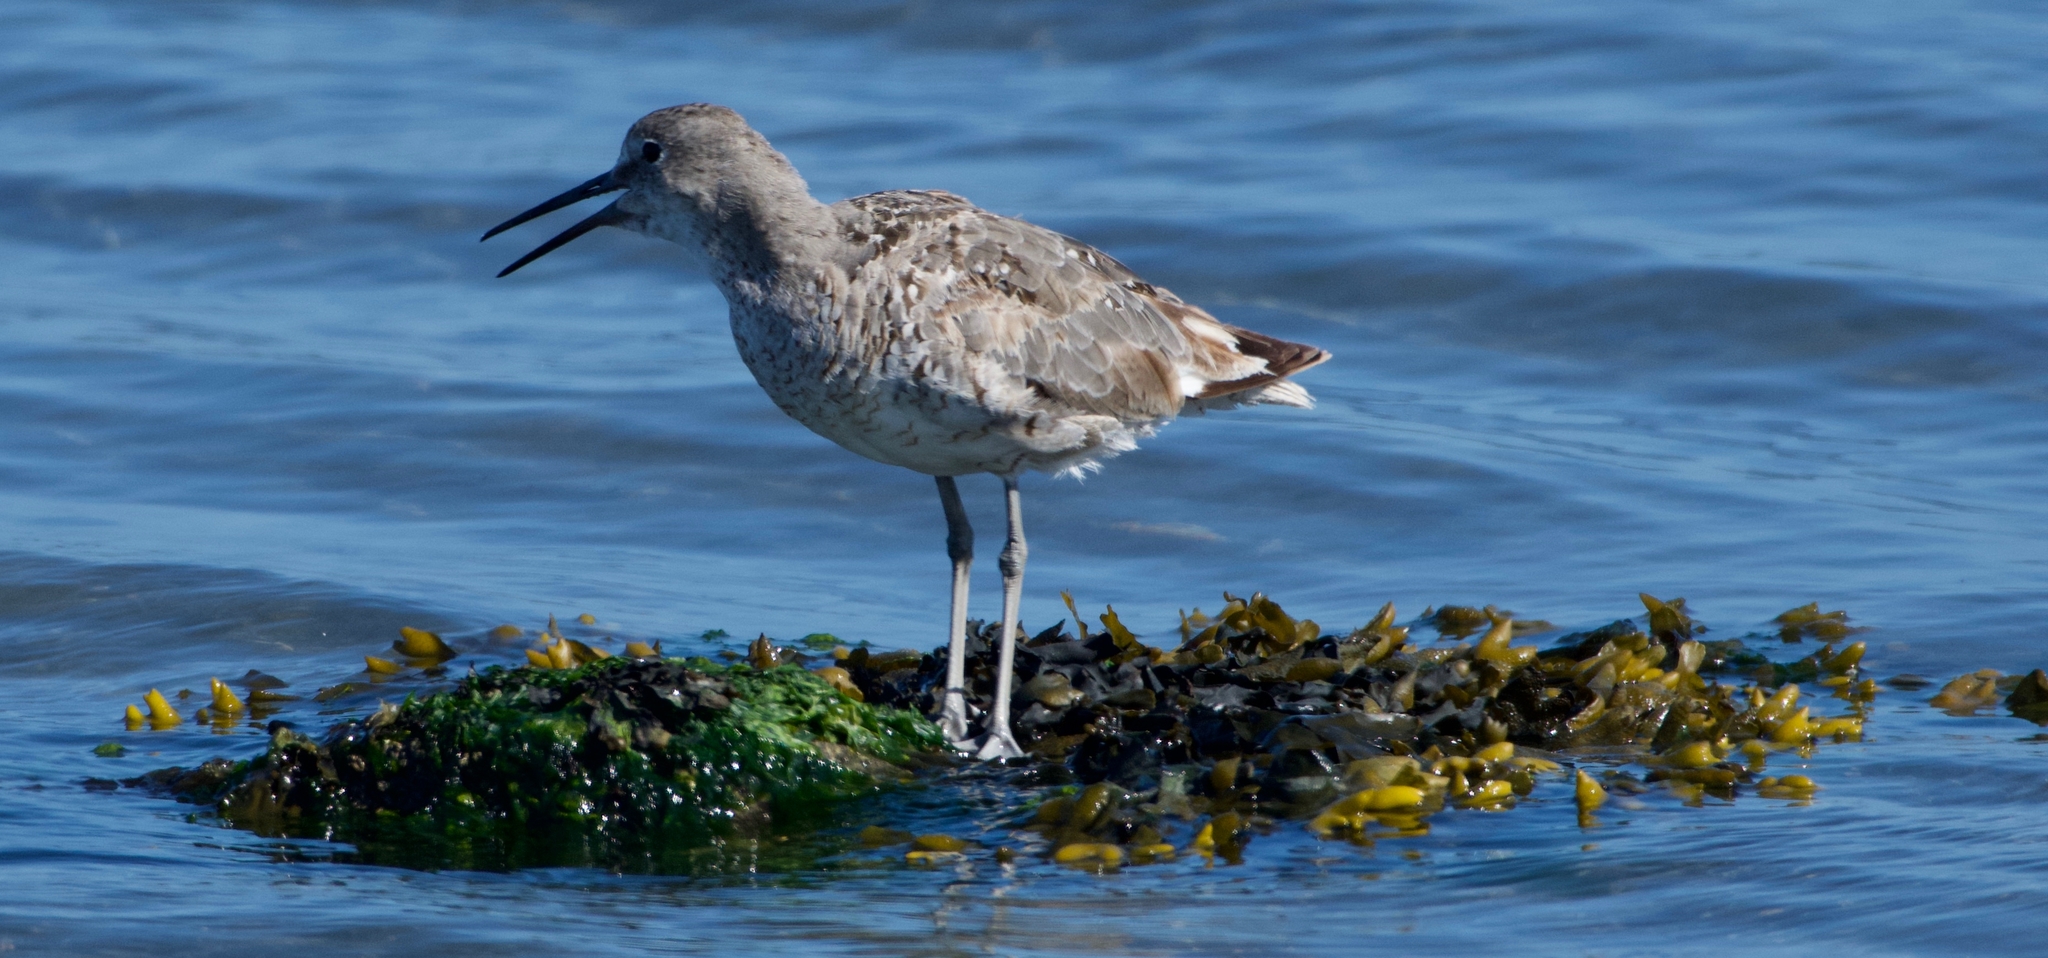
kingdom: Animalia
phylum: Chordata
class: Aves
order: Charadriiformes
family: Scolopacidae
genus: Tringa
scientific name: Tringa semipalmata
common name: Willet
